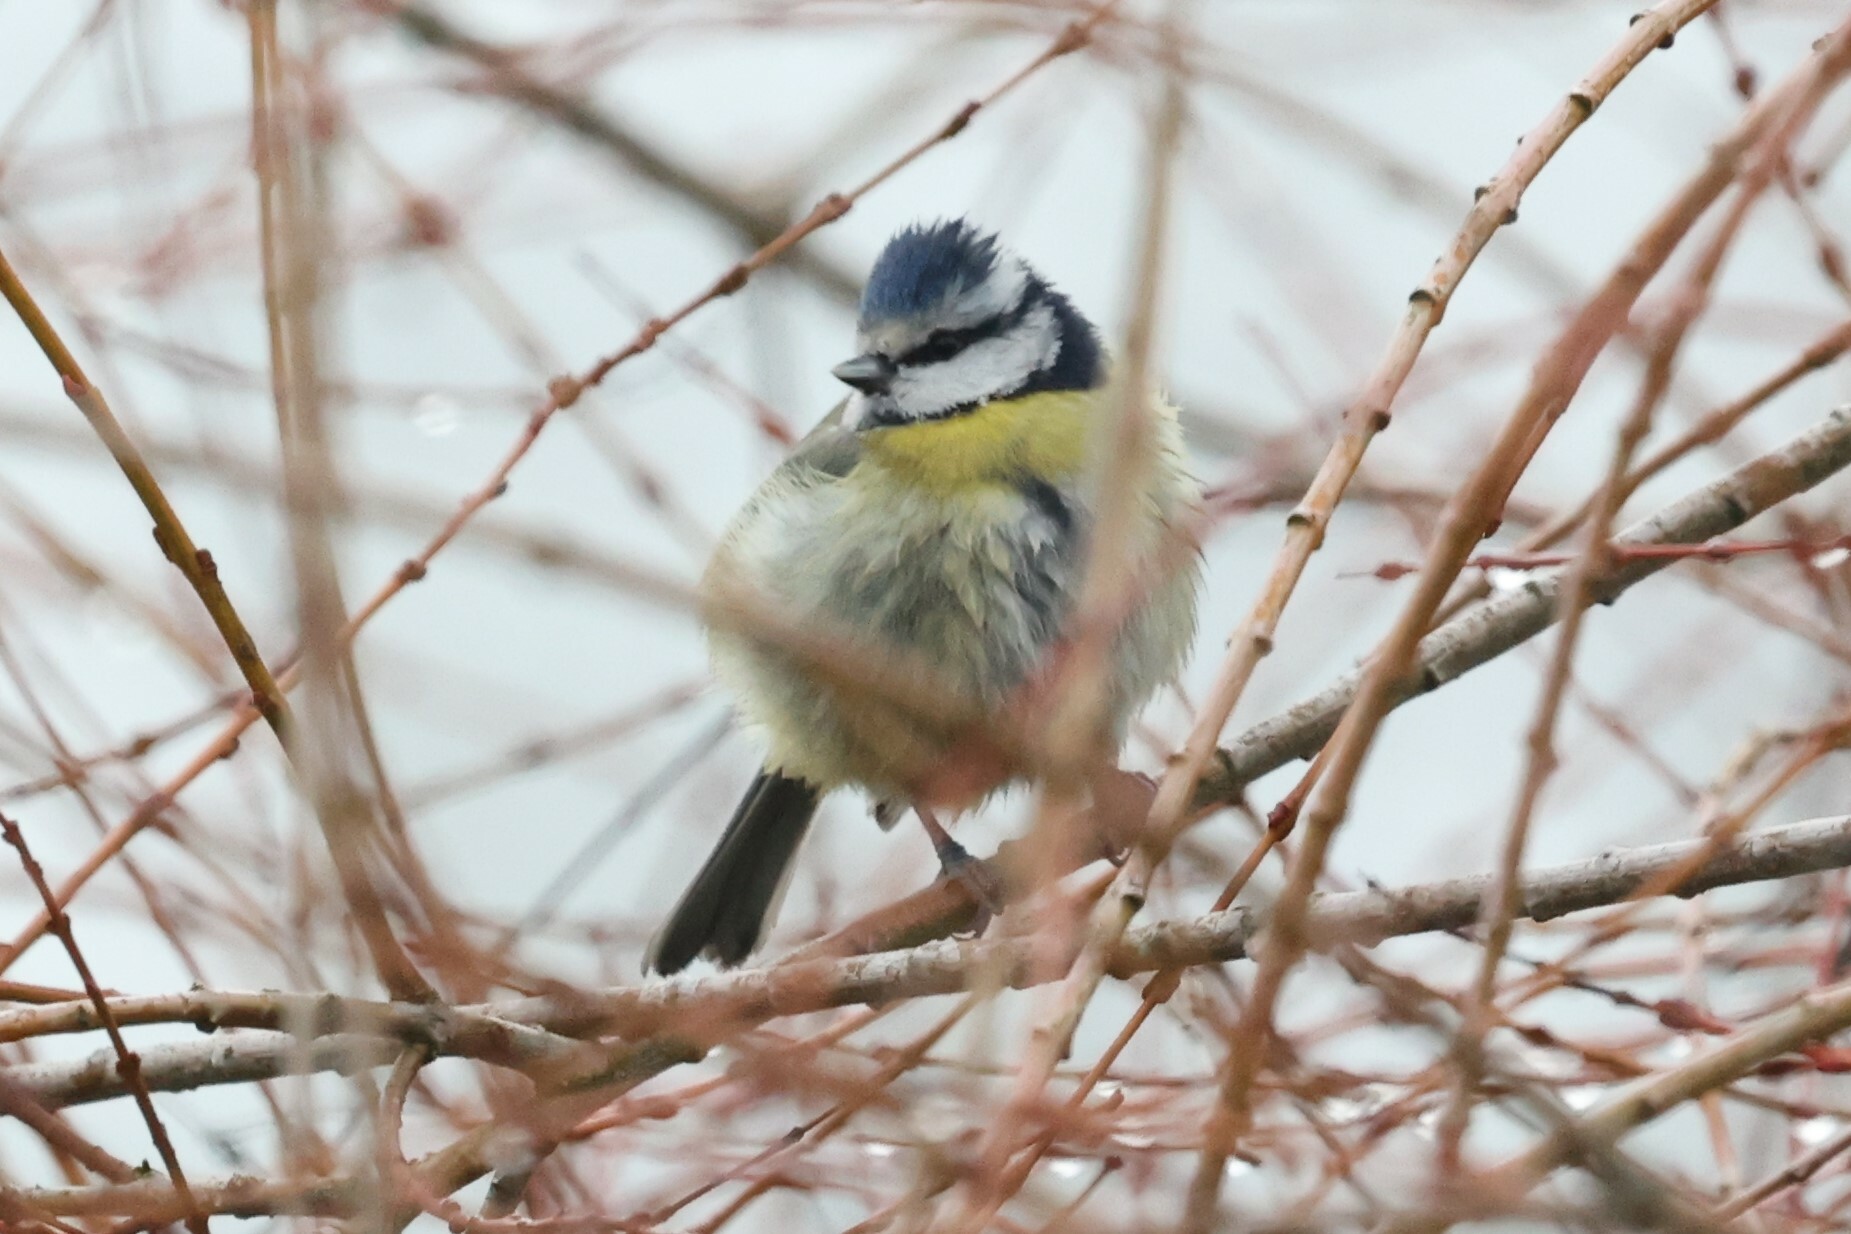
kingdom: Animalia
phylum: Chordata
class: Aves
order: Passeriformes
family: Paridae
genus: Cyanistes
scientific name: Cyanistes caeruleus
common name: Eurasian blue tit
